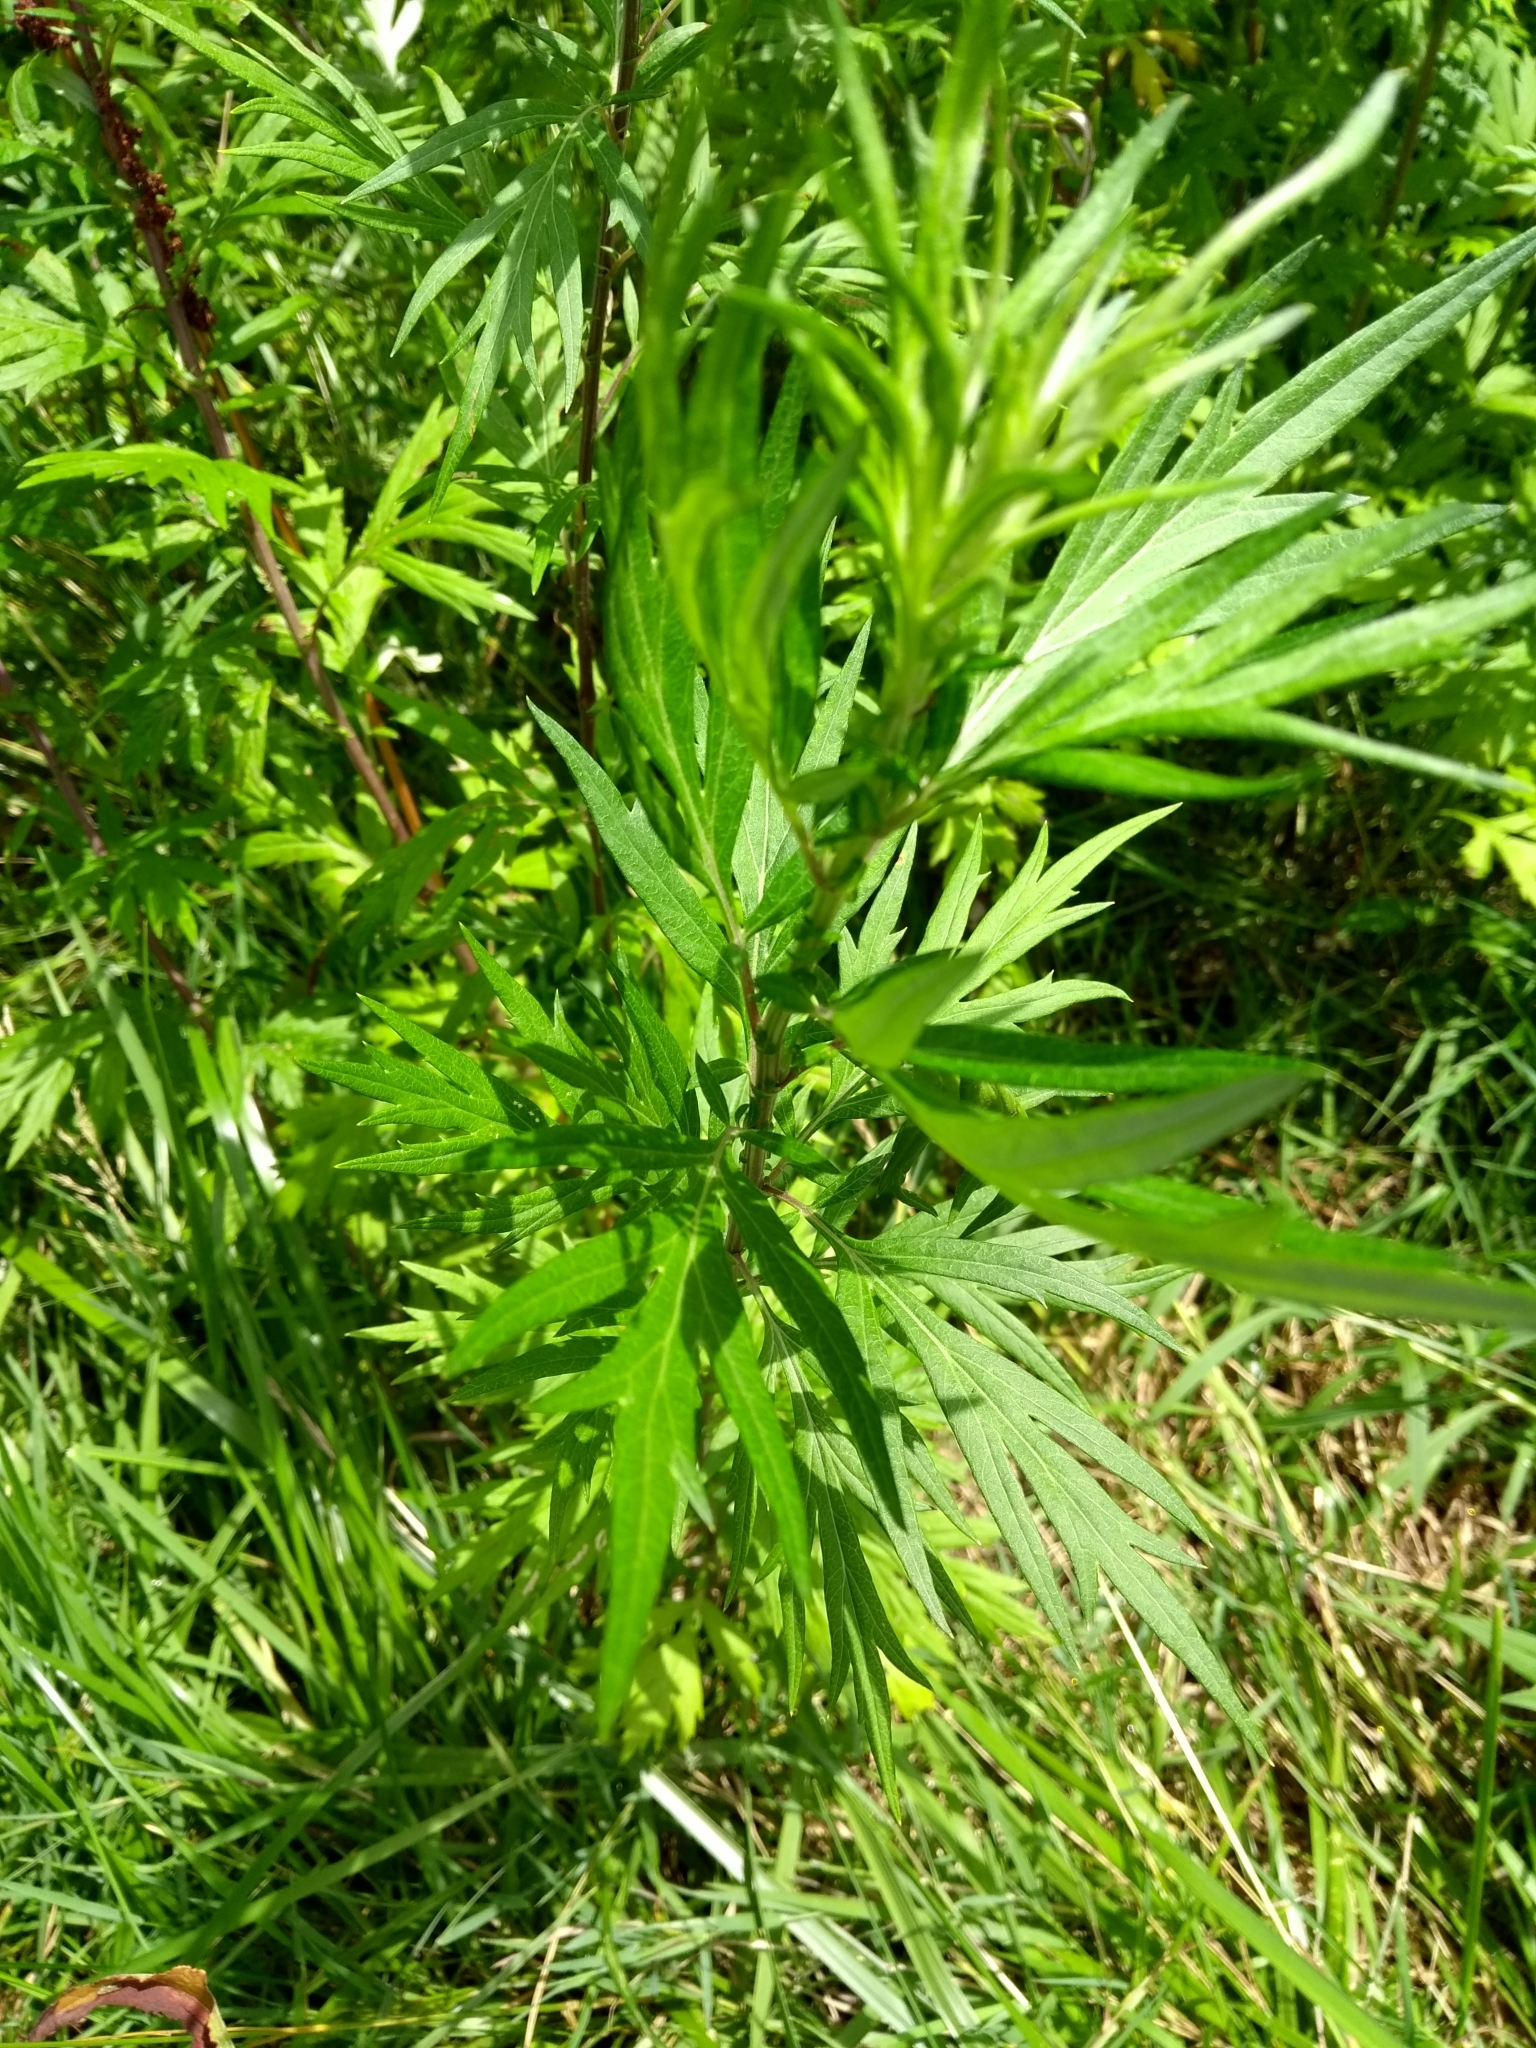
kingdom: Plantae
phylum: Tracheophyta
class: Magnoliopsida
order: Asterales
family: Asteraceae
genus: Artemisia
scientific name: Artemisia vulgaris
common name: Mugwort
